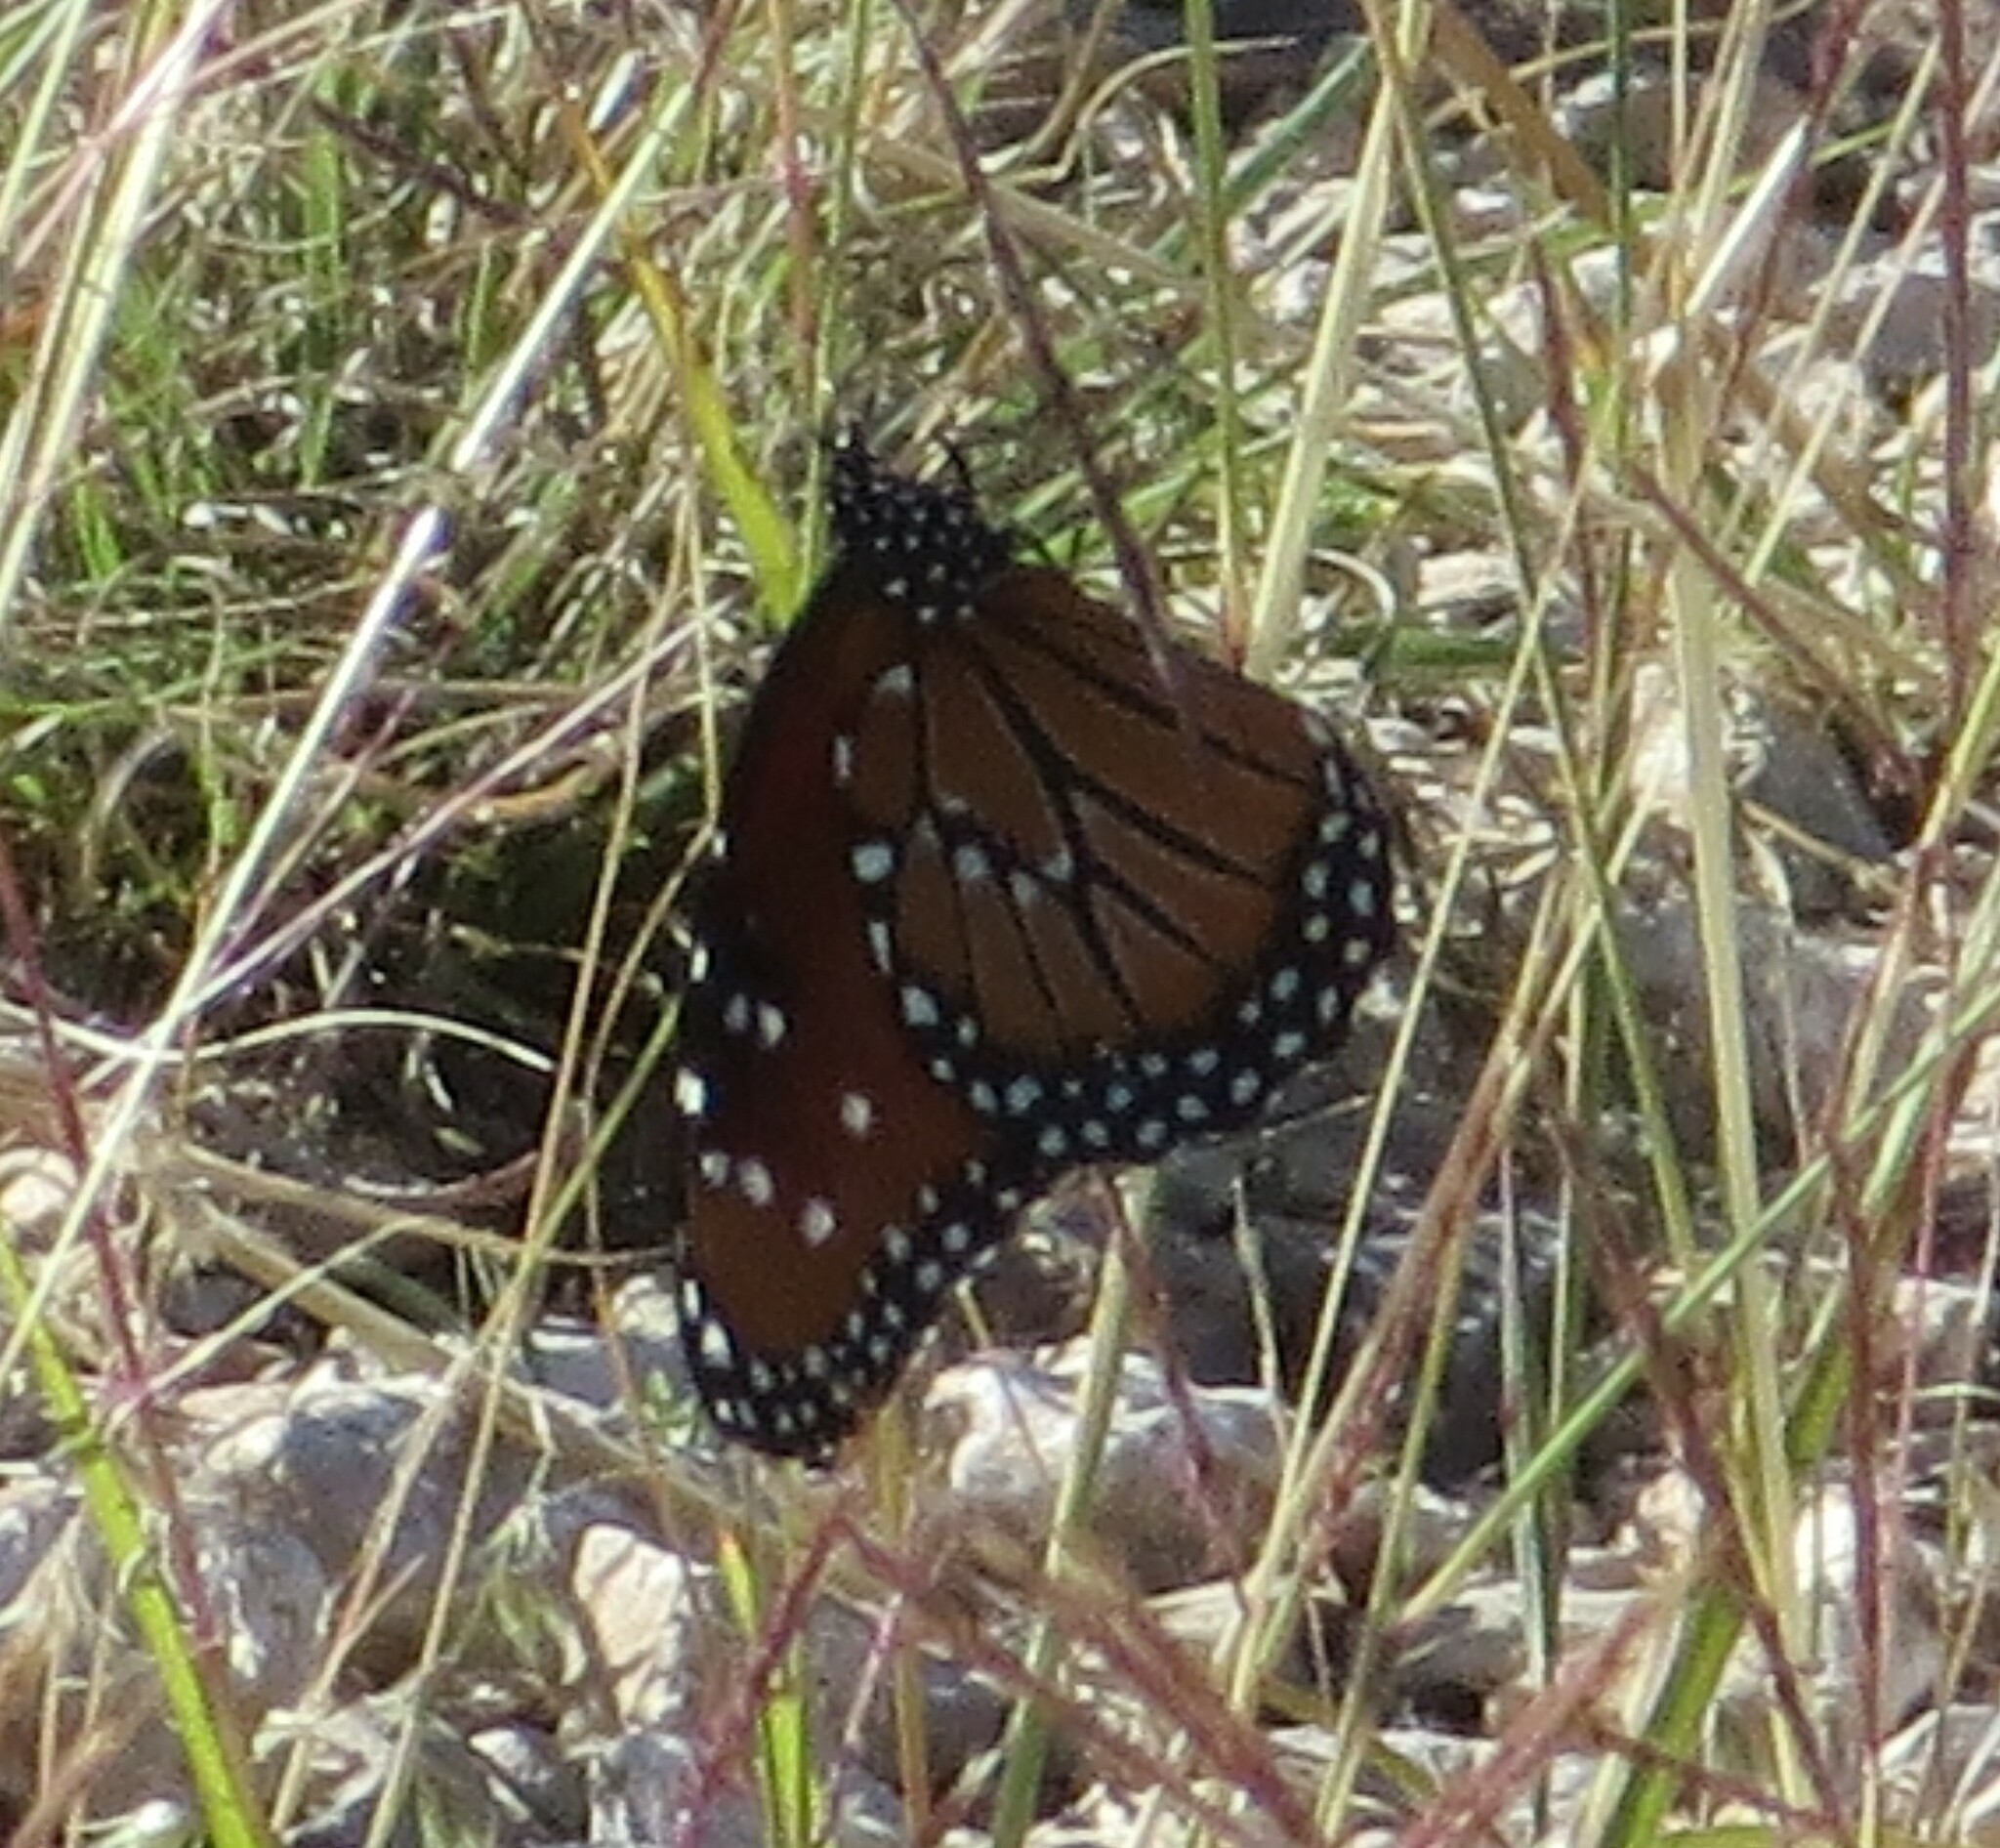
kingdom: Animalia
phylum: Arthropoda
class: Insecta
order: Lepidoptera
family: Nymphalidae
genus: Danaus
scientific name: Danaus gilippus
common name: Queen
